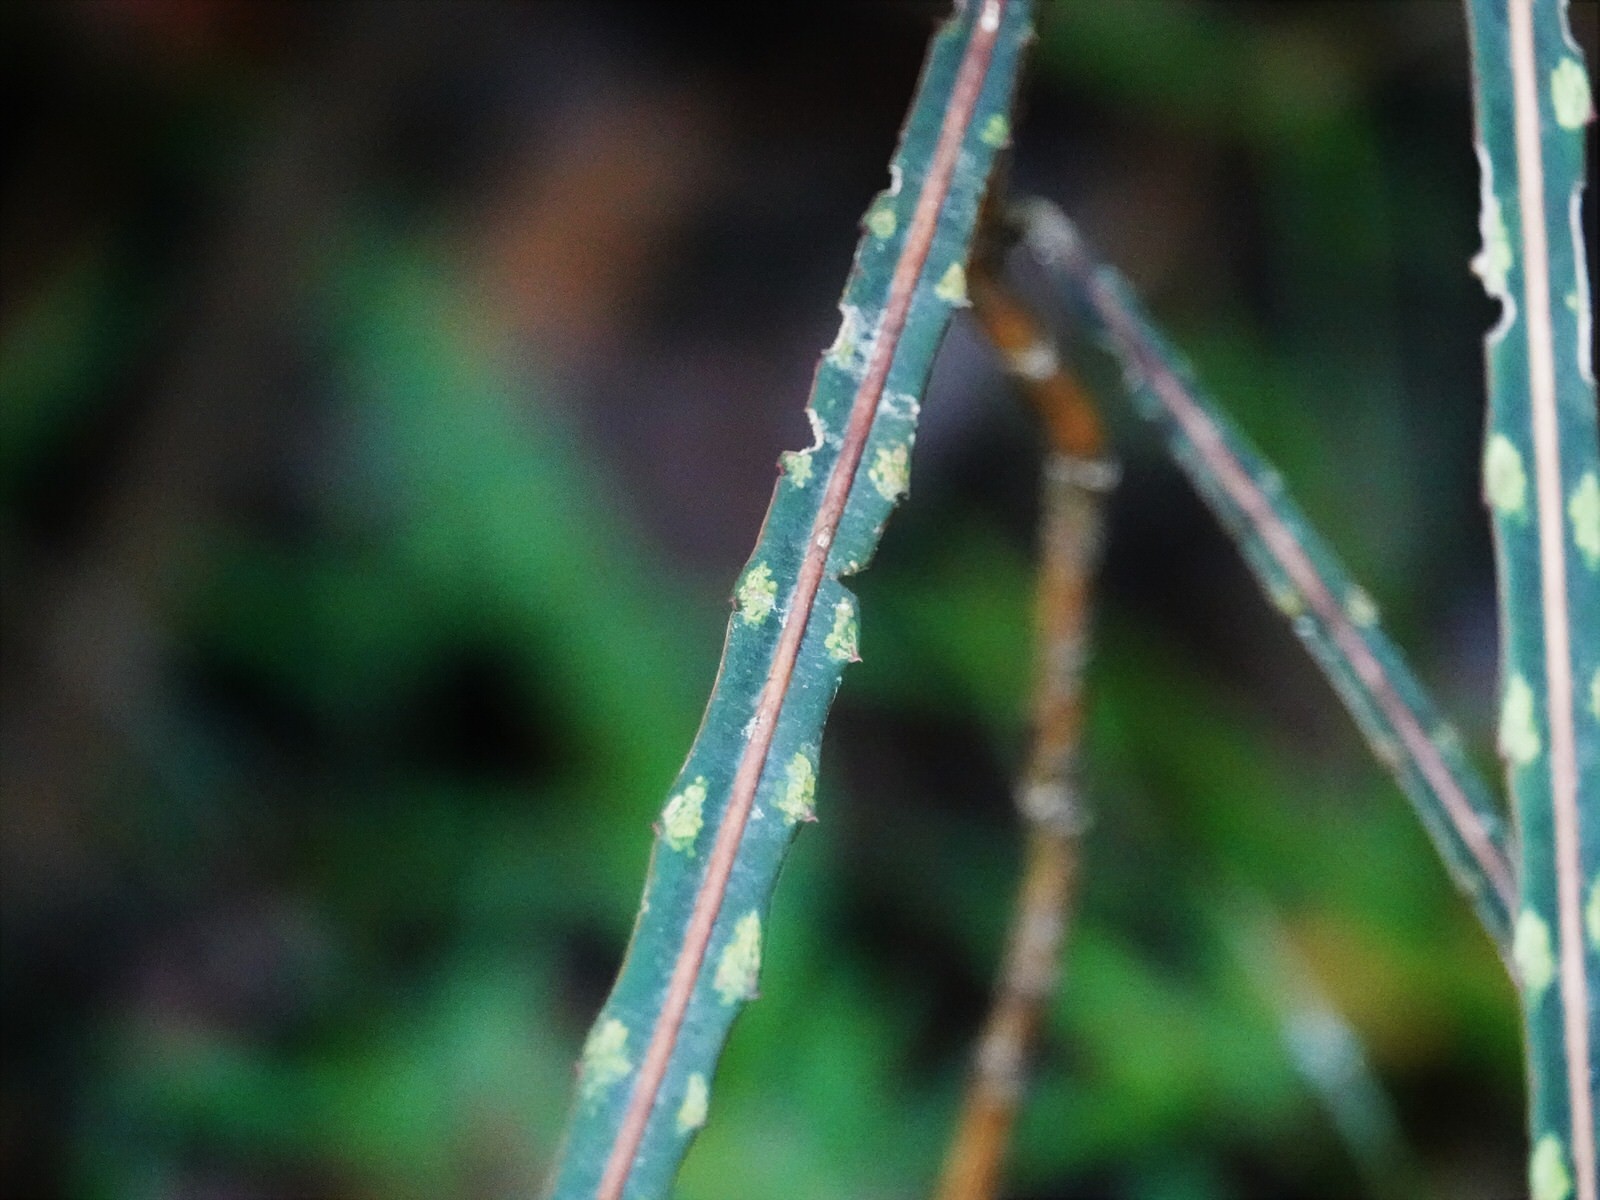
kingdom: Plantae
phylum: Tracheophyta
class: Magnoliopsida
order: Apiales
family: Araliaceae
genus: Pseudopanax
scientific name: Pseudopanax crassifolius
